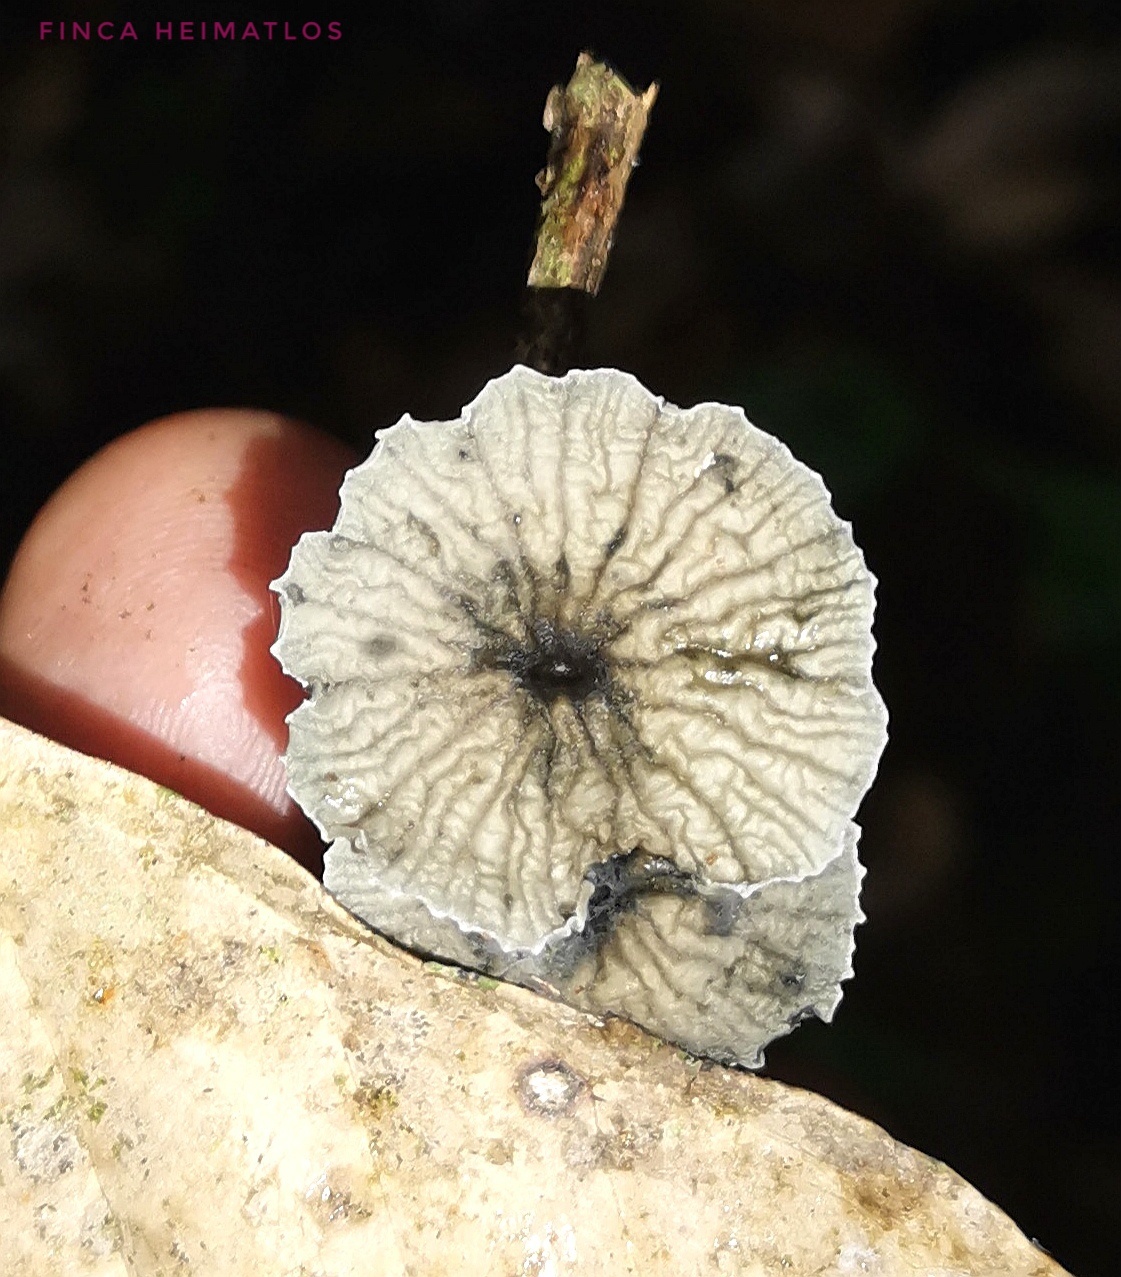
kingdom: Fungi
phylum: Basidiomycota
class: Agaricomycetes
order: Agaricales
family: Marasmiaceae
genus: Tetrapyrgos
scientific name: Tetrapyrgos longicystidiata
